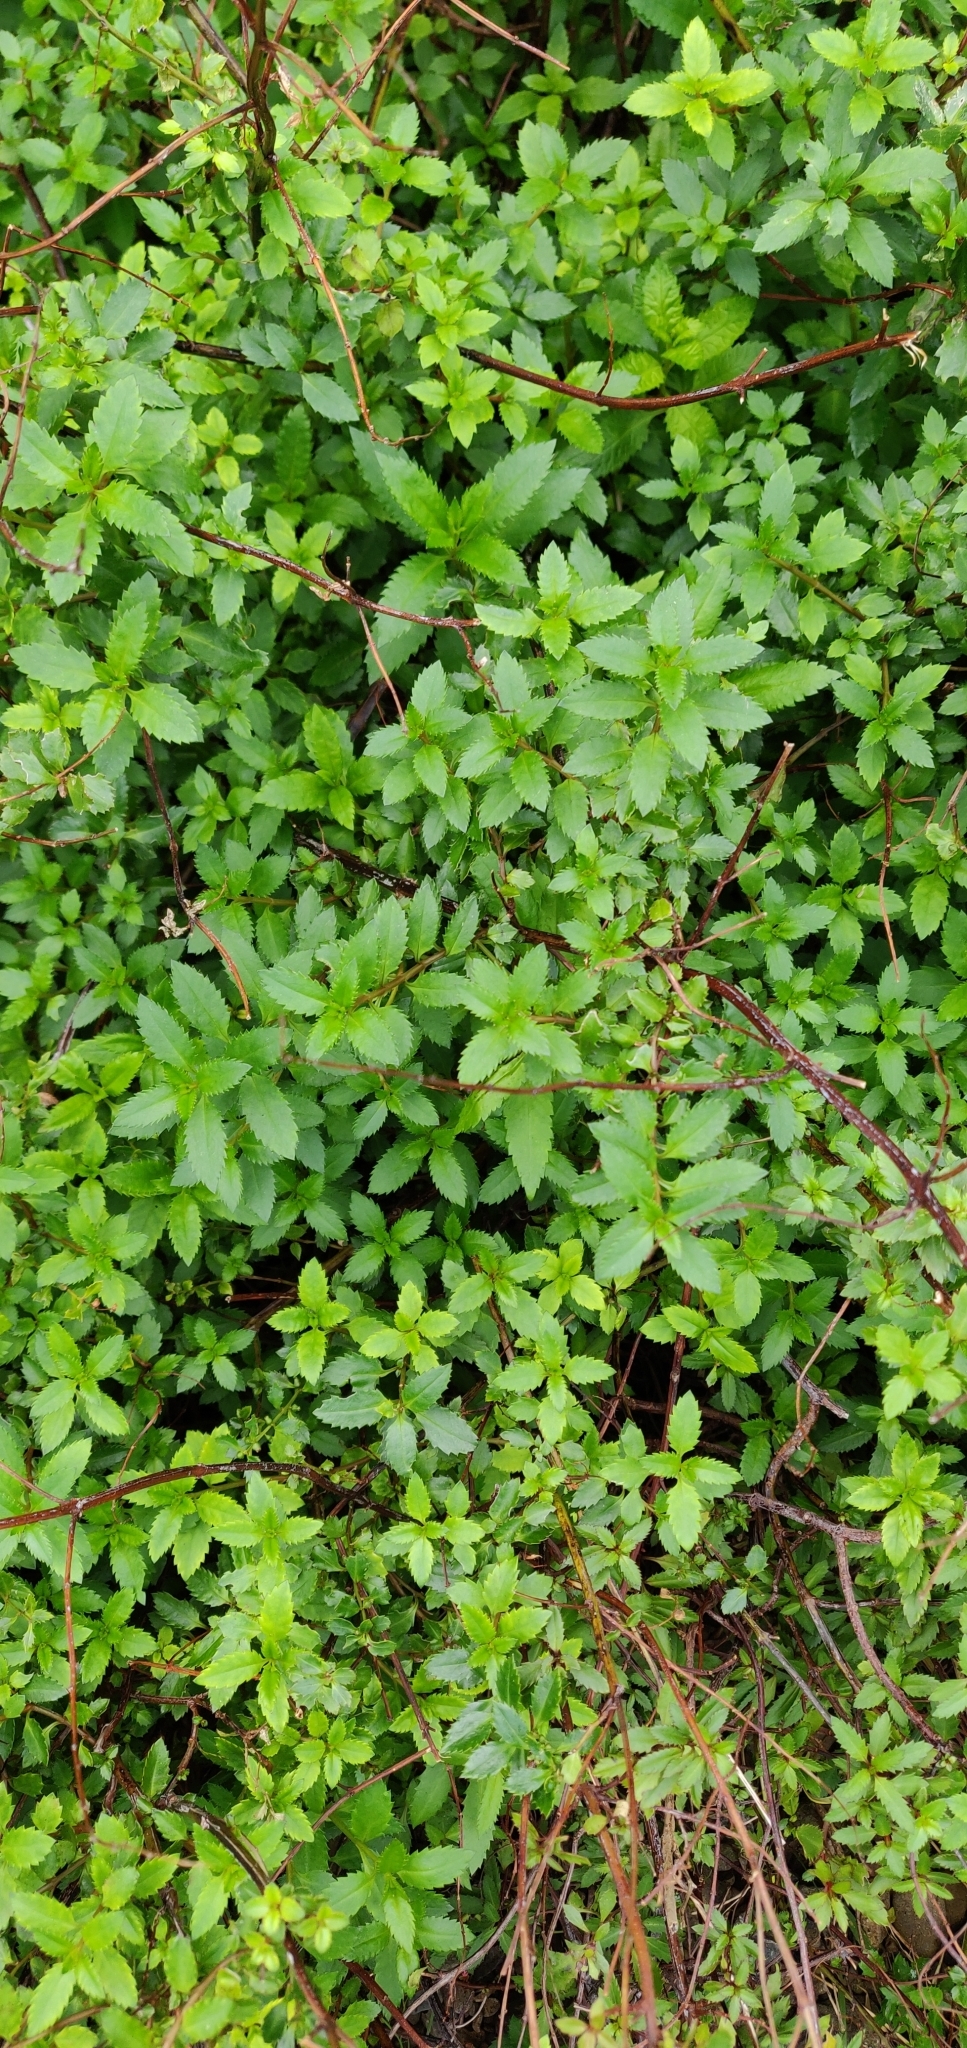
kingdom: Plantae
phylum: Tracheophyta
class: Magnoliopsida
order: Saxifragales
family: Haloragaceae
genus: Haloragis
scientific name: Haloragis erecta
